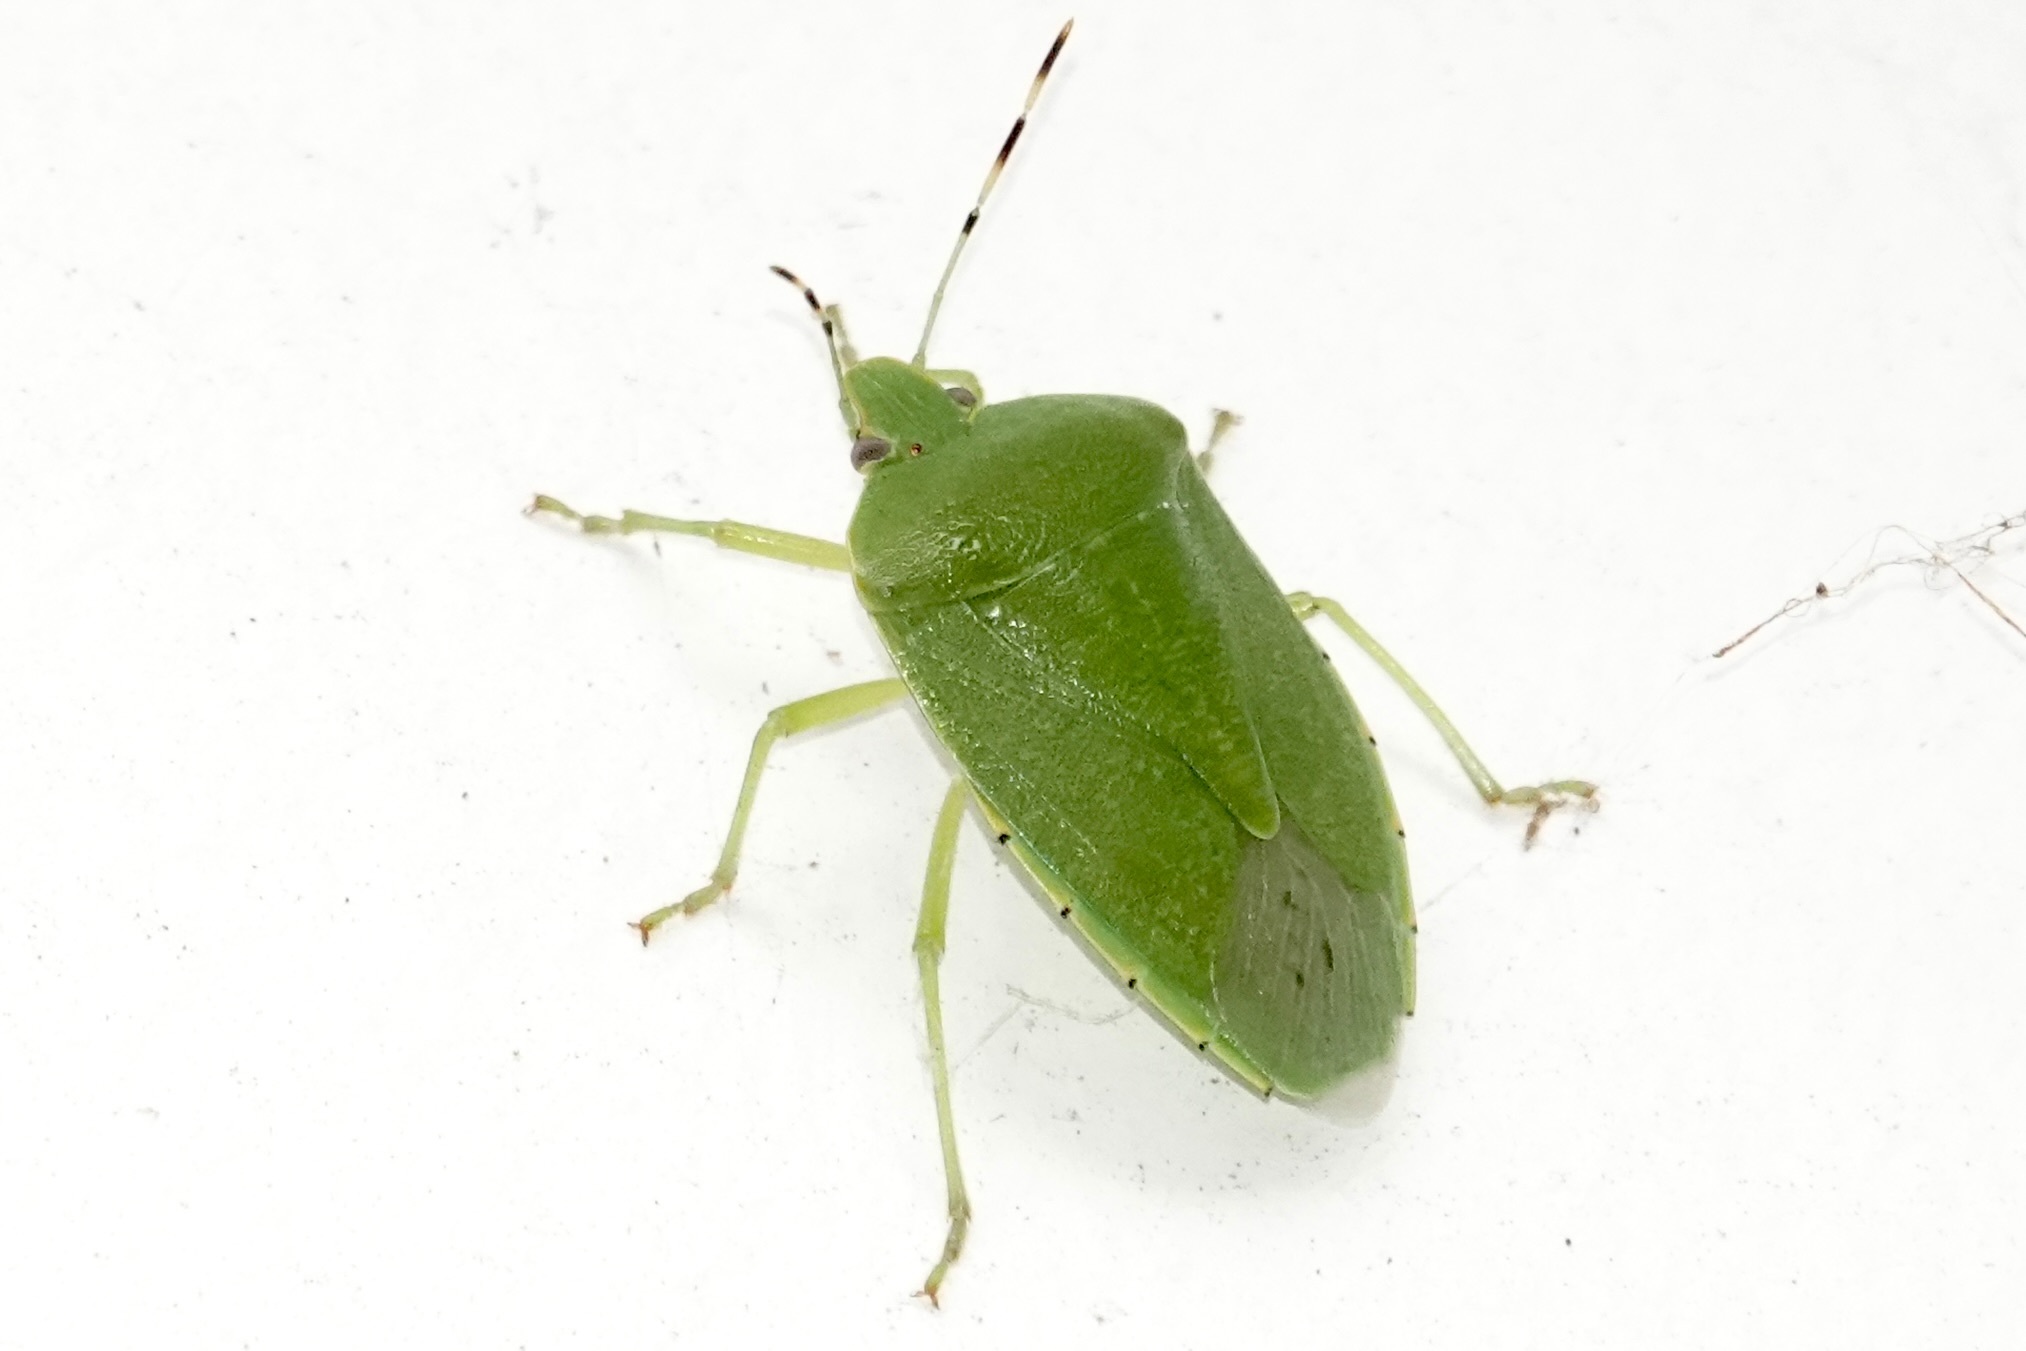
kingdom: Animalia
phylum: Arthropoda
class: Insecta
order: Hemiptera
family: Pentatomidae
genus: Chinavia
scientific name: Chinavia hilaris
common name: Green stink bug
